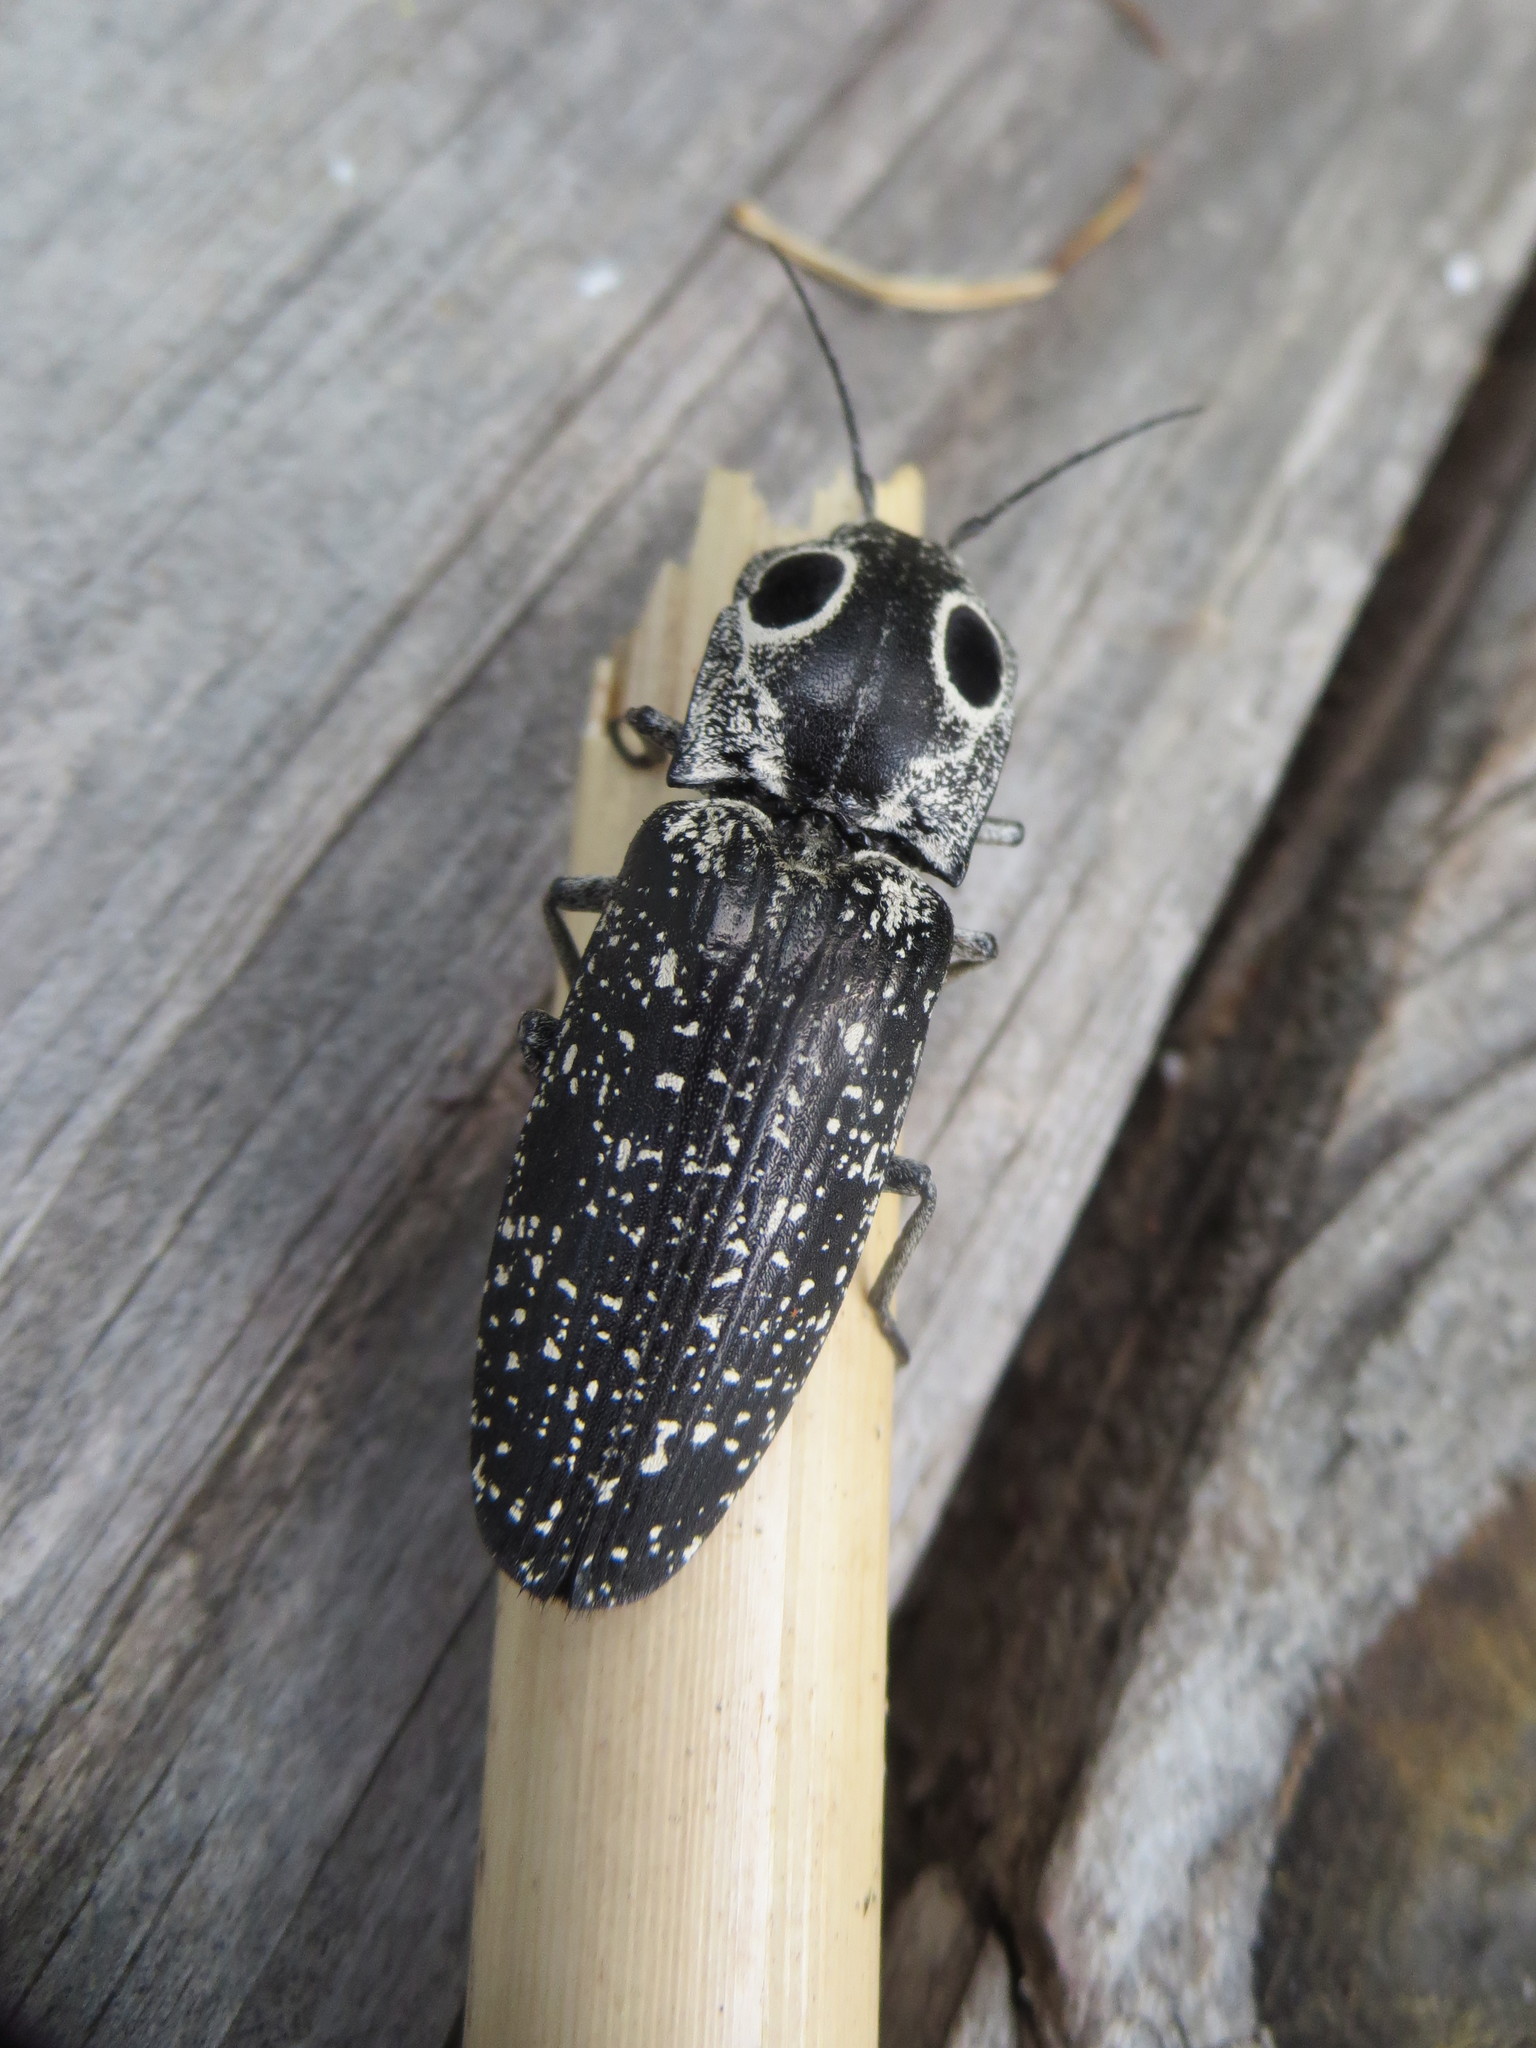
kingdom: Animalia
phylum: Arthropoda
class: Insecta
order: Coleoptera
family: Elateridae
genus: Alaus
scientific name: Alaus oculatus
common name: Eastern eyed click beetle
